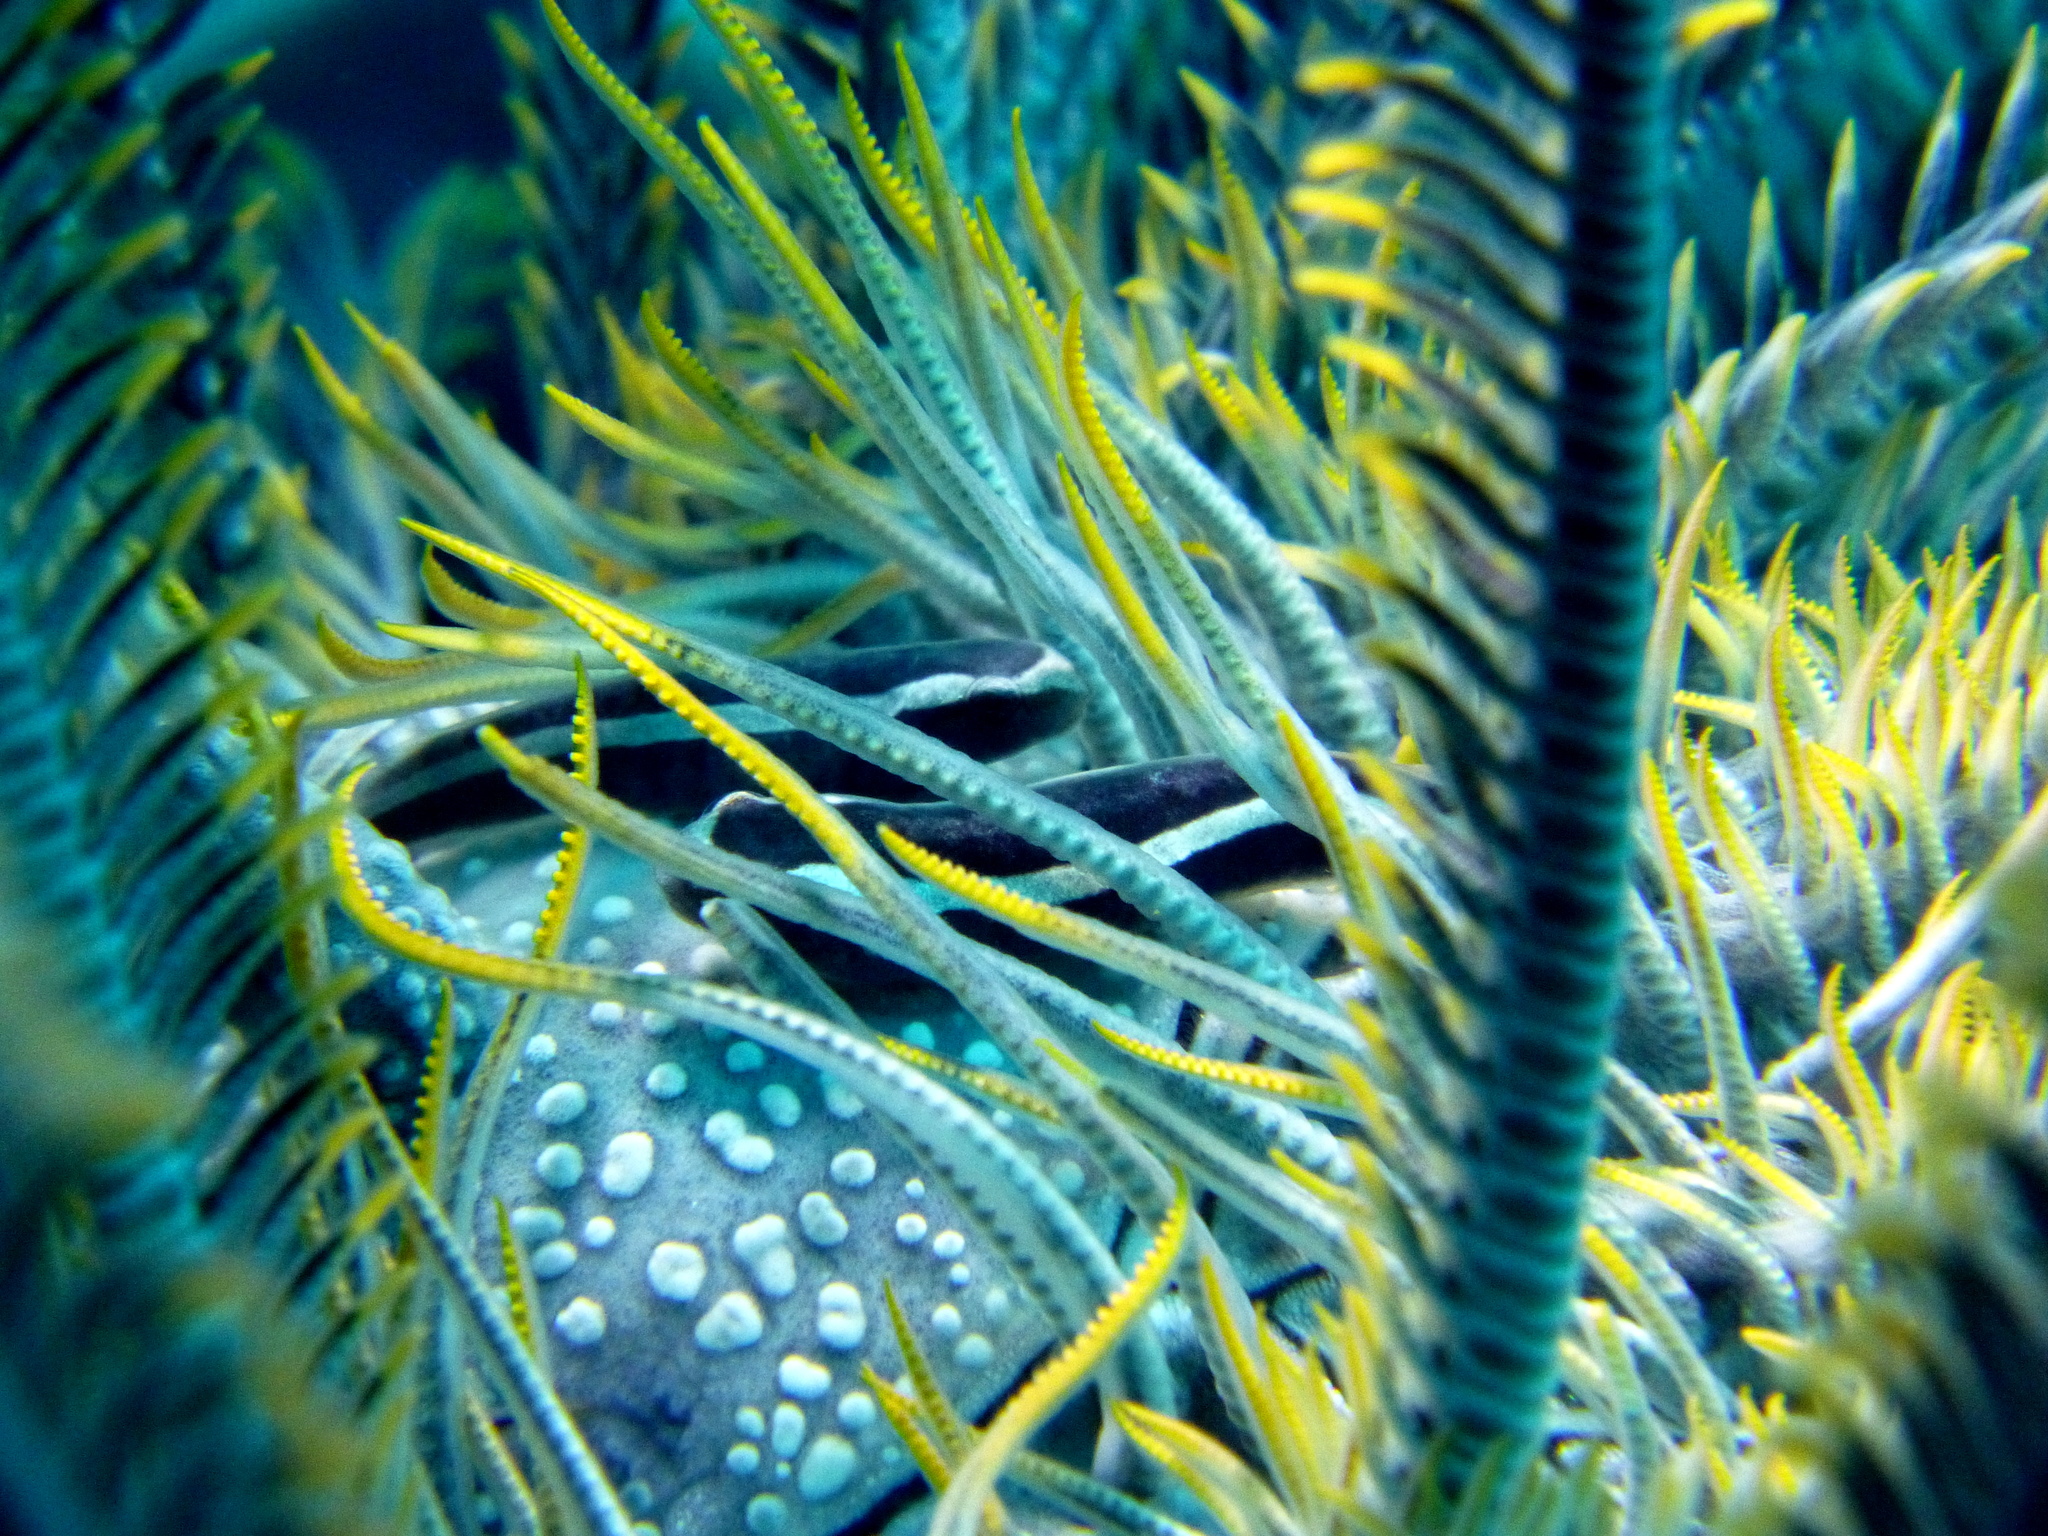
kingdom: Animalia
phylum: Chordata
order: Gobiesociformes
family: Gobiesocidae
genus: Discotrema
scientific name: Discotrema monogrammum
